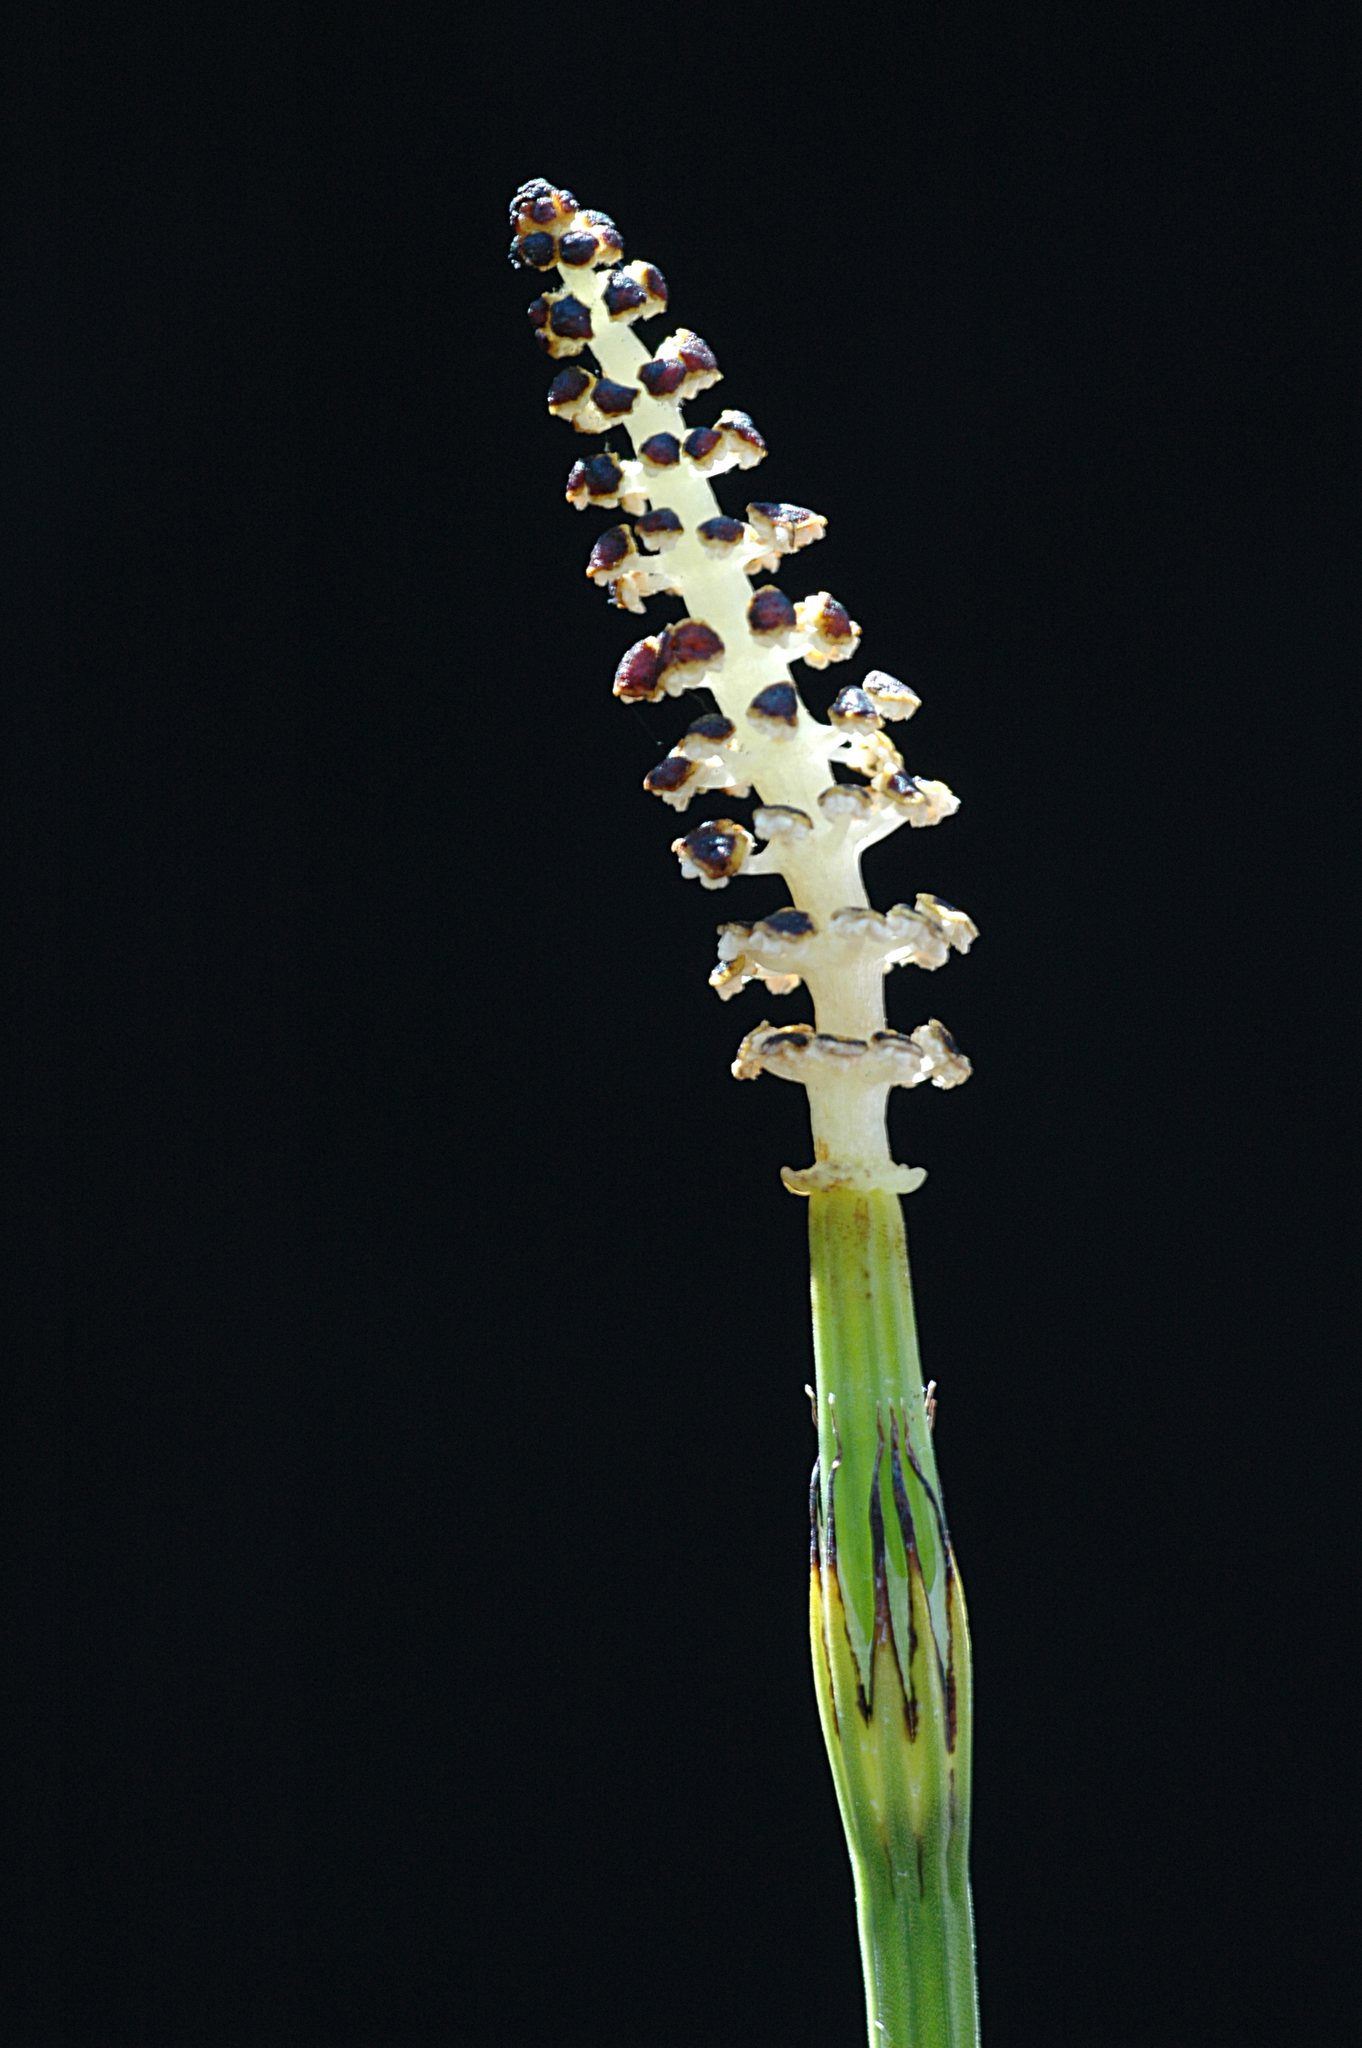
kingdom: Plantae
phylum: Tracheophyta
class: Polypodiopsida
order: Equisetales
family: Equisetaceae
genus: Equisetum
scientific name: Equisetum palustre
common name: Marsh horsetail
